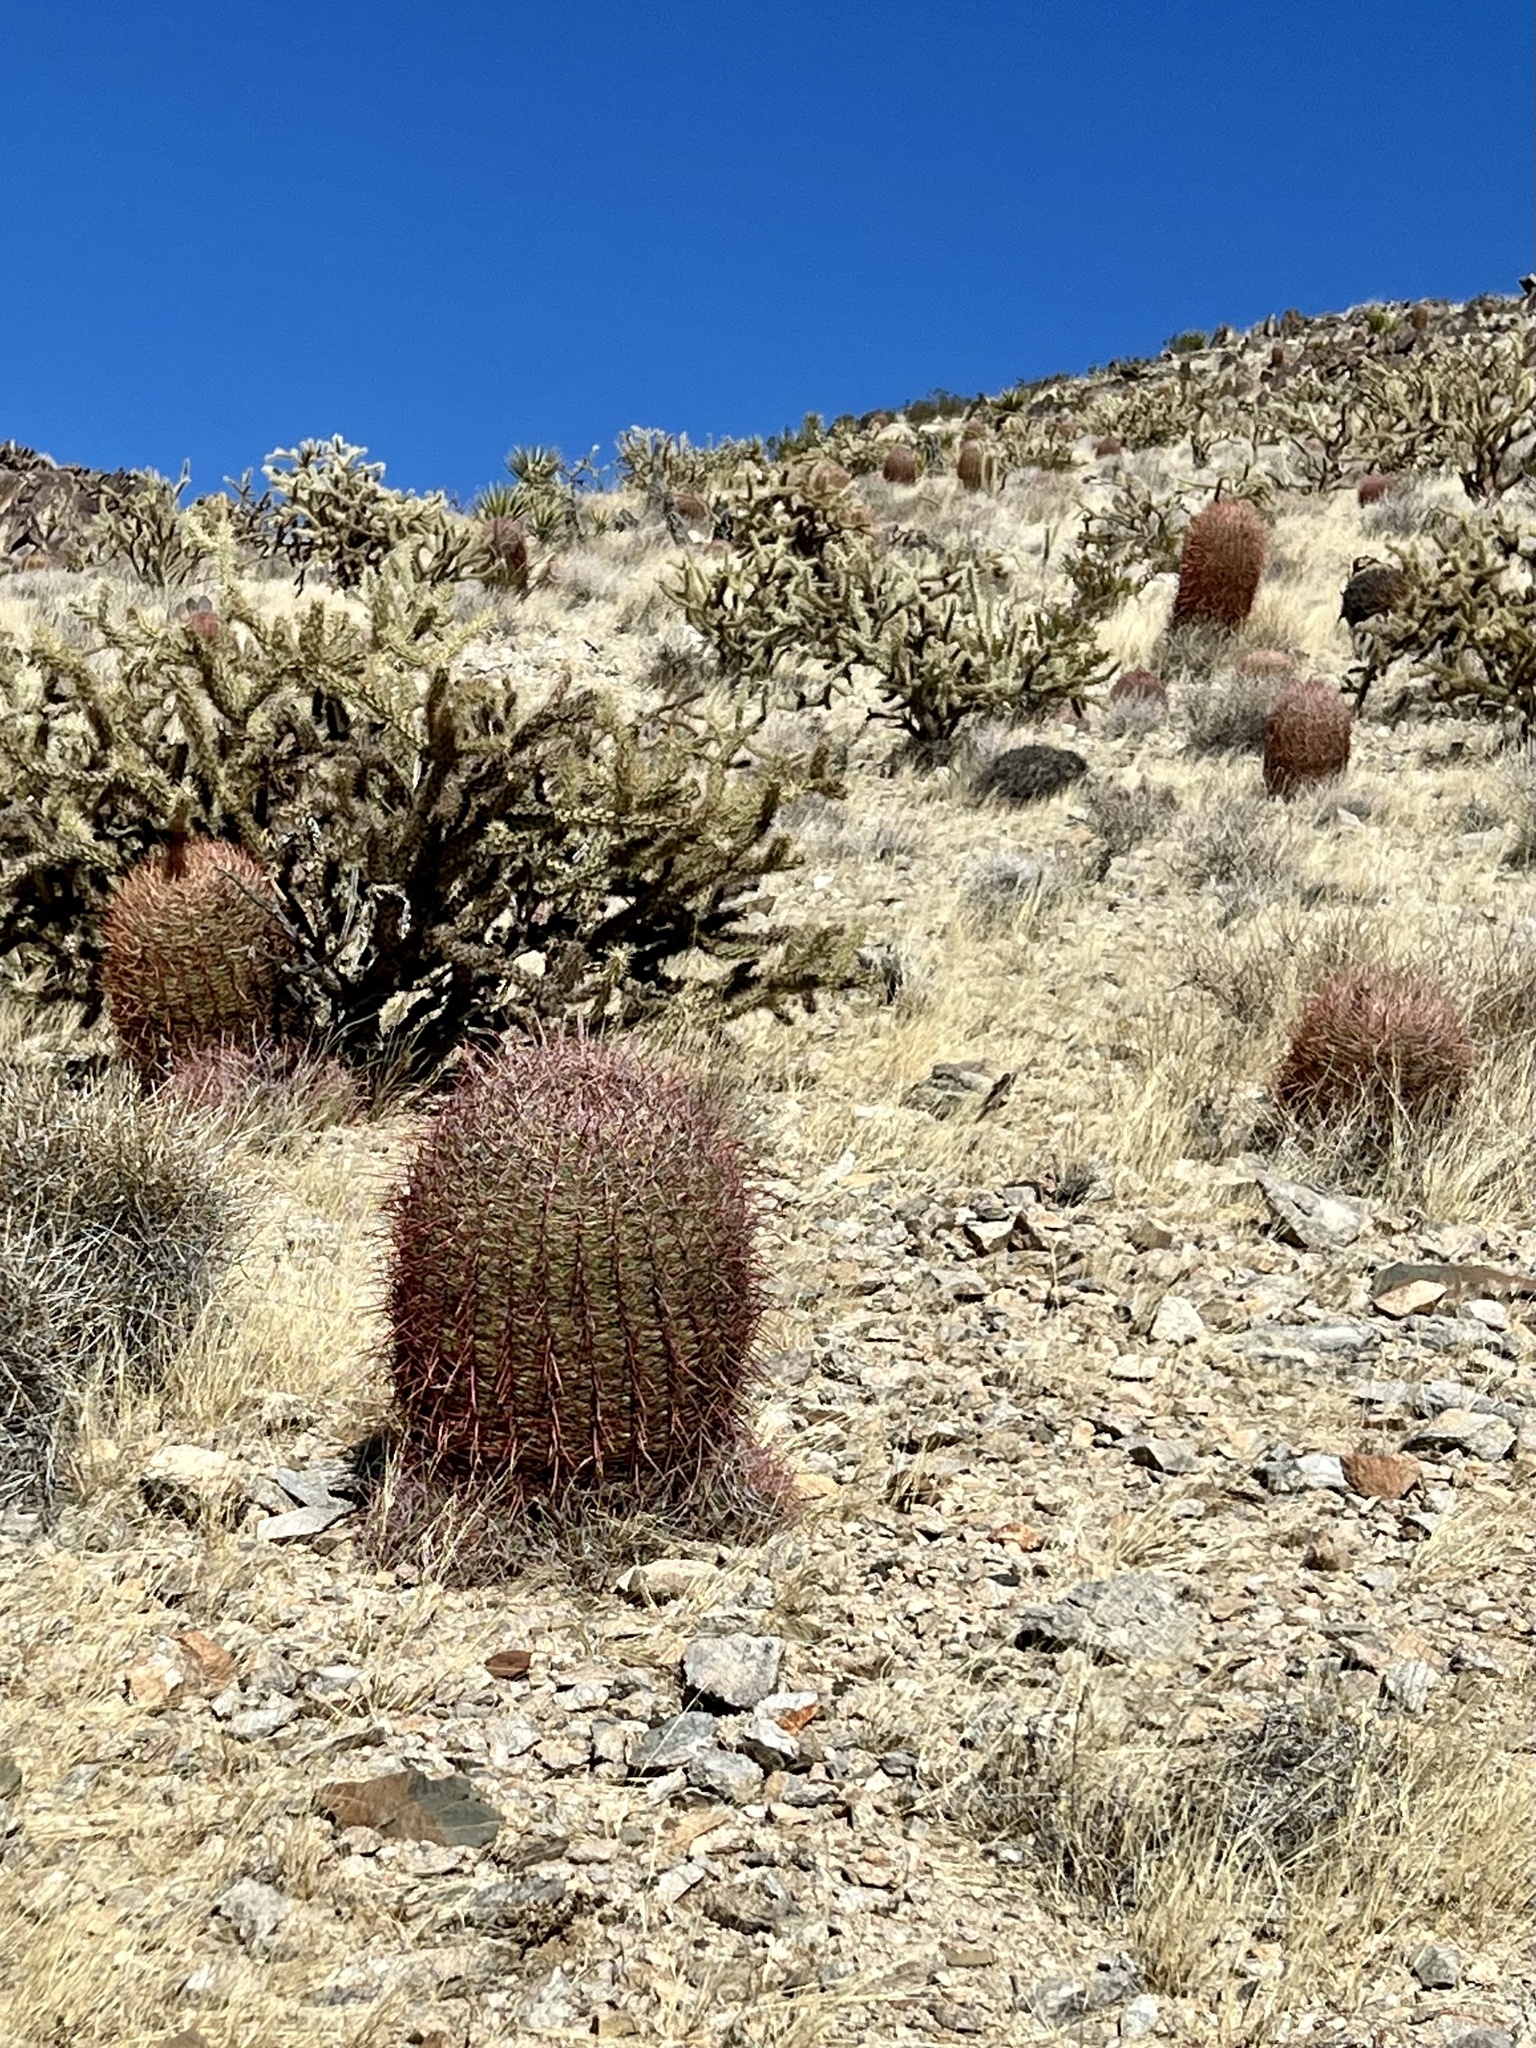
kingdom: Plantae
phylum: Tracheophyta
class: Magnoliopsida
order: Caryophyllales
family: Cactaceae
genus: Ferocactus
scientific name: Ferocactus cylindraceus
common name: California barrel cactus
